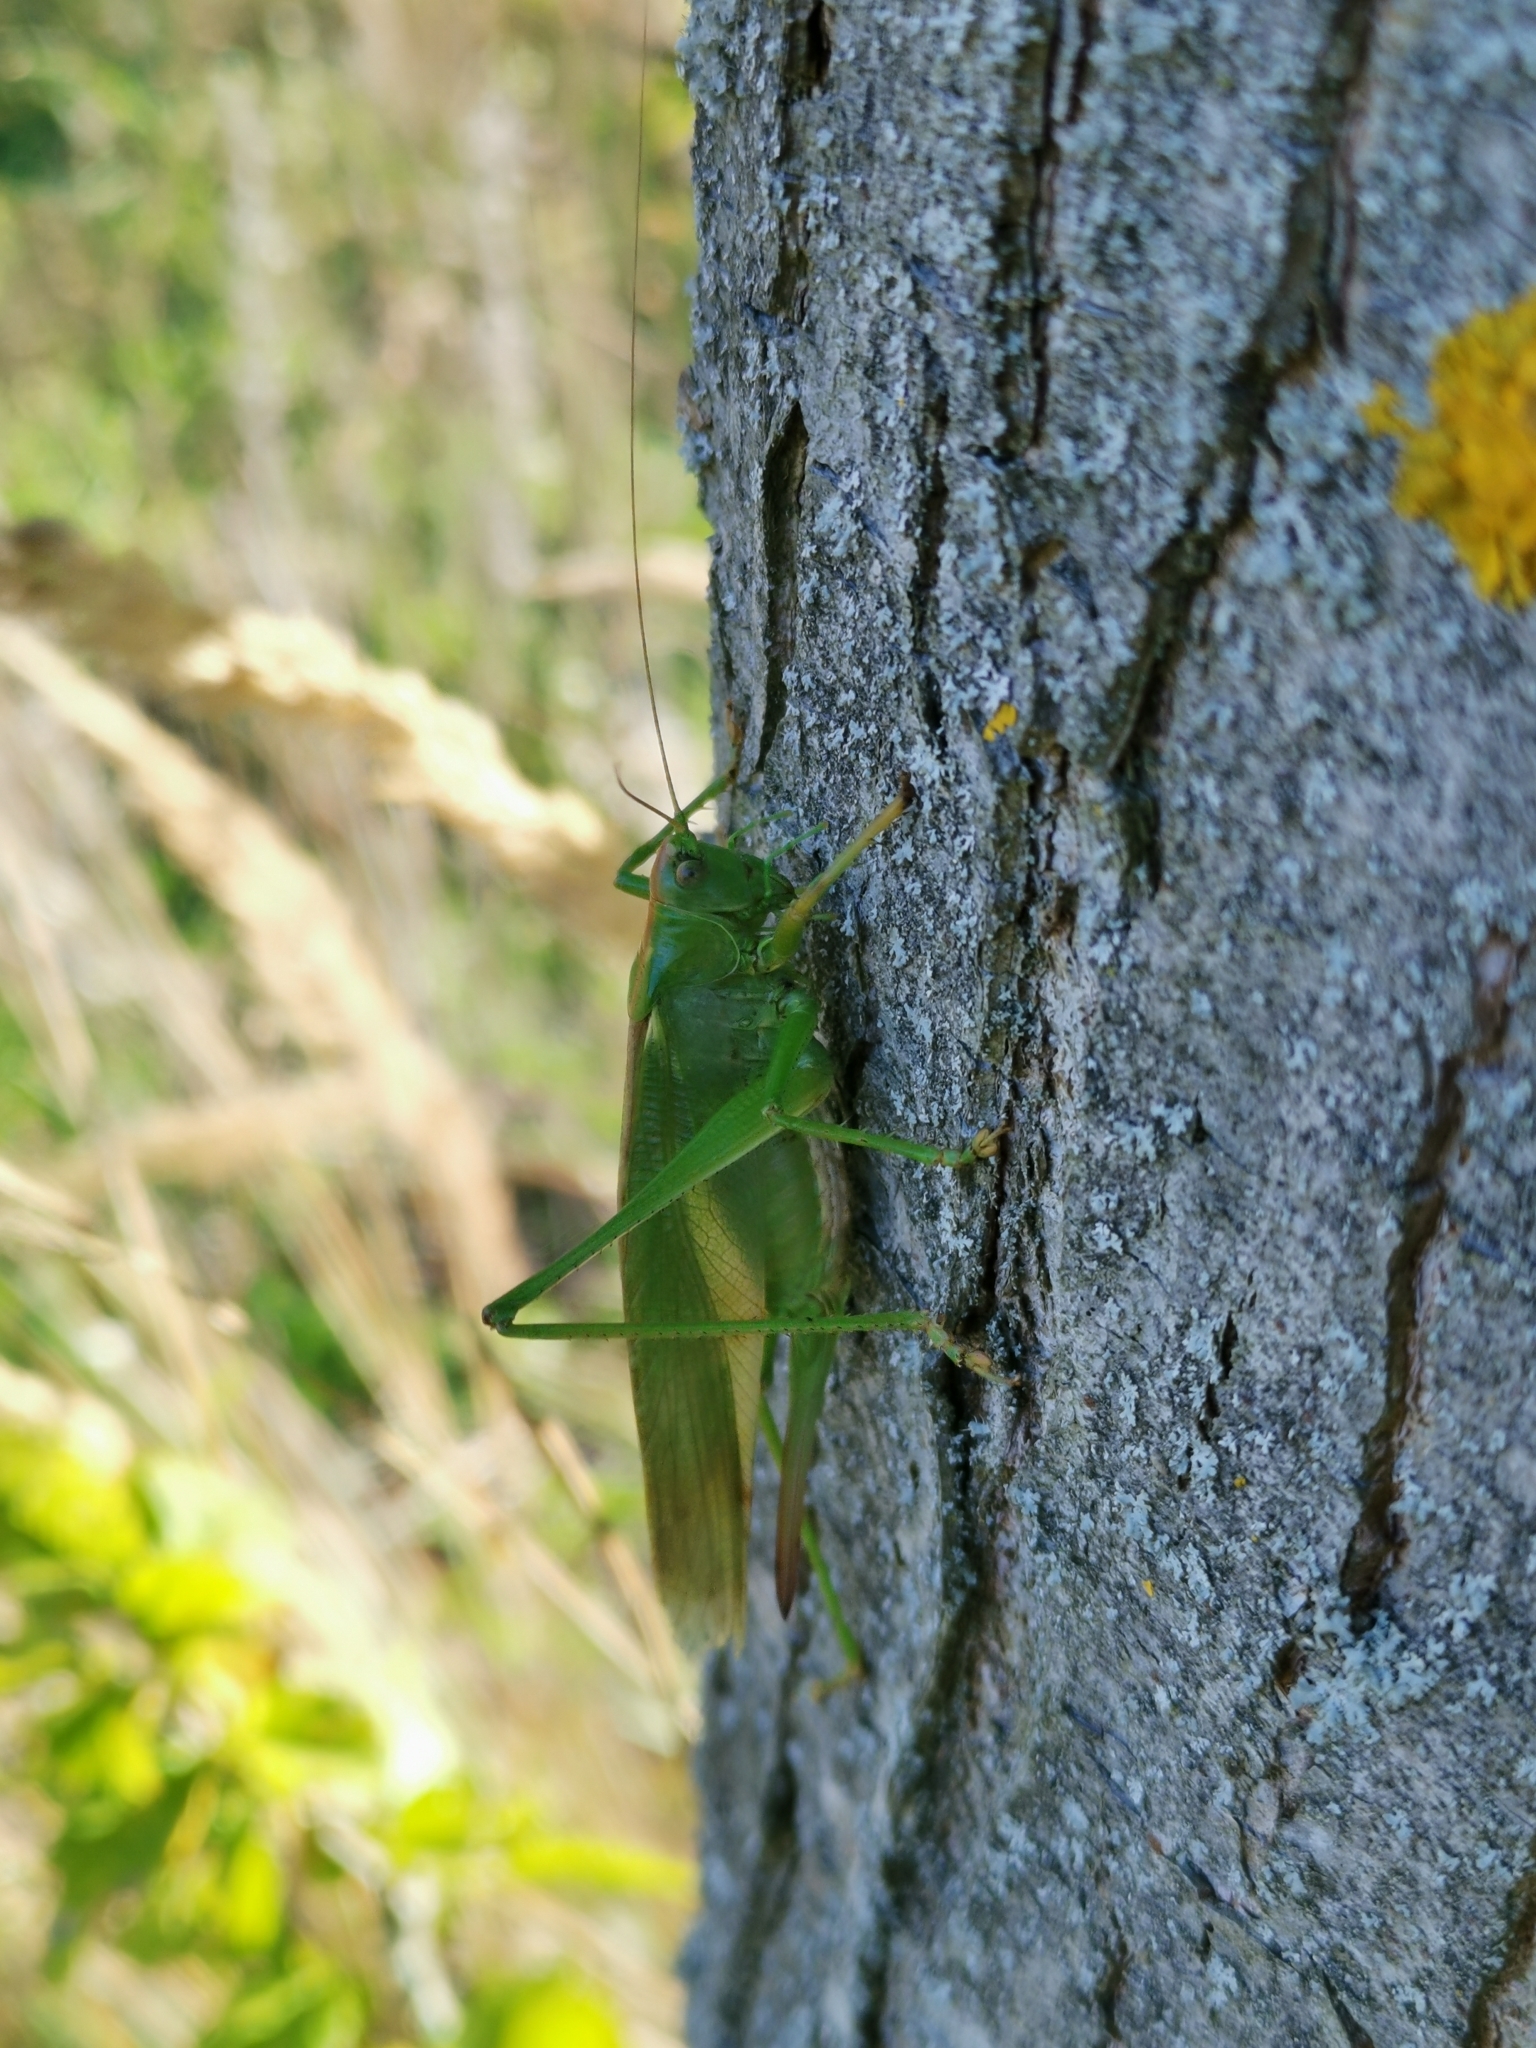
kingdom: Animalia
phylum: Arthropoda
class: Insecta
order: Orthoptera
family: Tettigoniidae
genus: Tettigonia
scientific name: Tettigonia viridissima
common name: Great green bush-cricket
